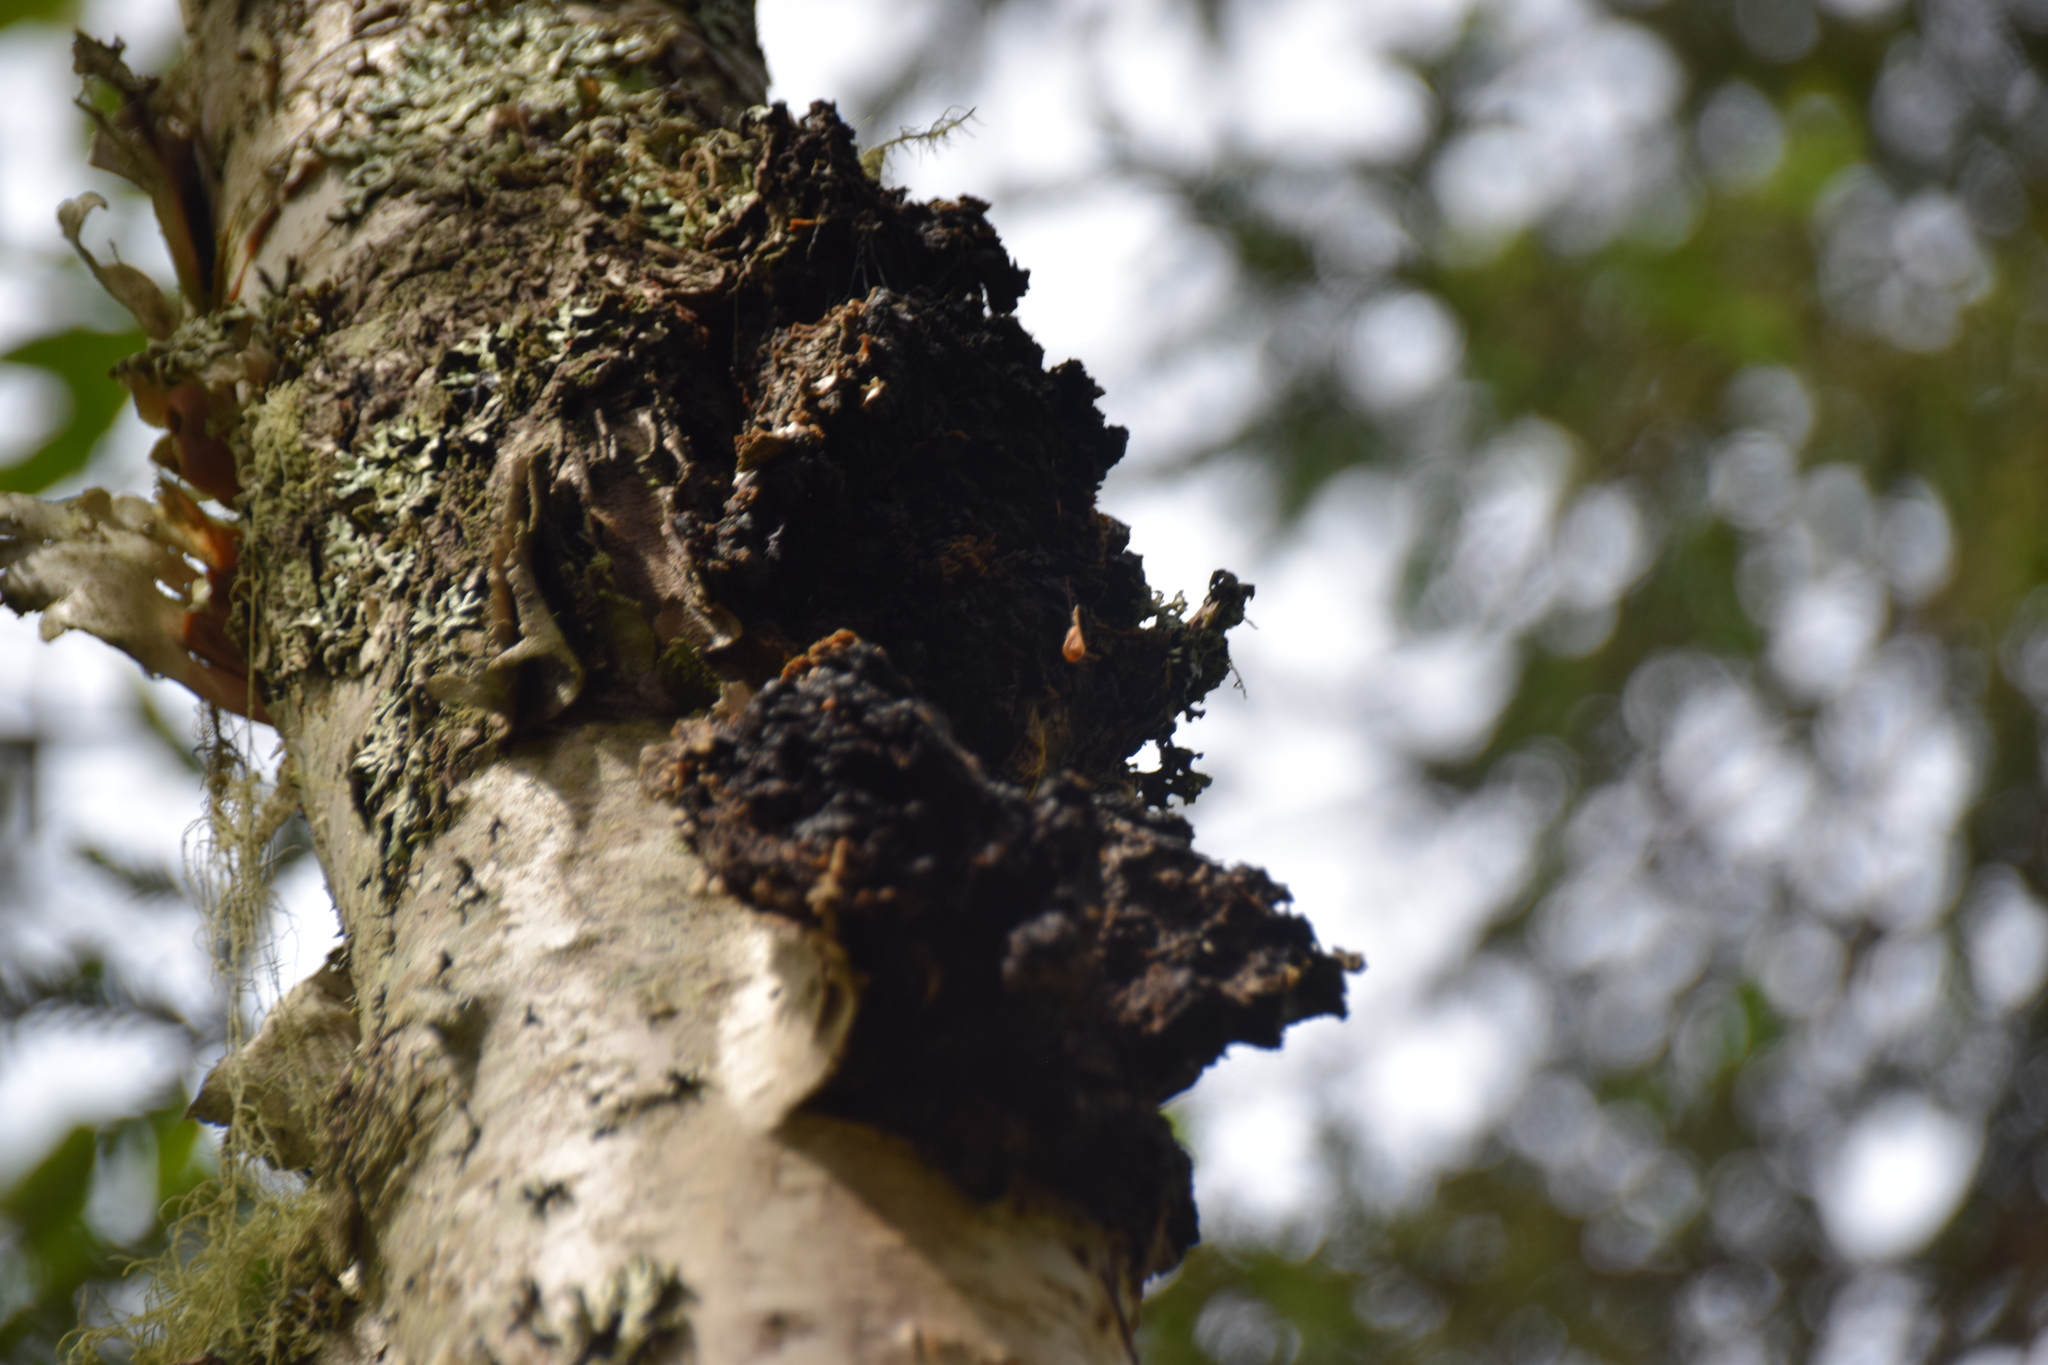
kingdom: Fungi
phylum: Basidiomycota
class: Agaricomycetes
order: Hymenochaetales
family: Hymenochaetaceae
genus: Inonotus
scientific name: Inonotus obliquus
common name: Chaga
